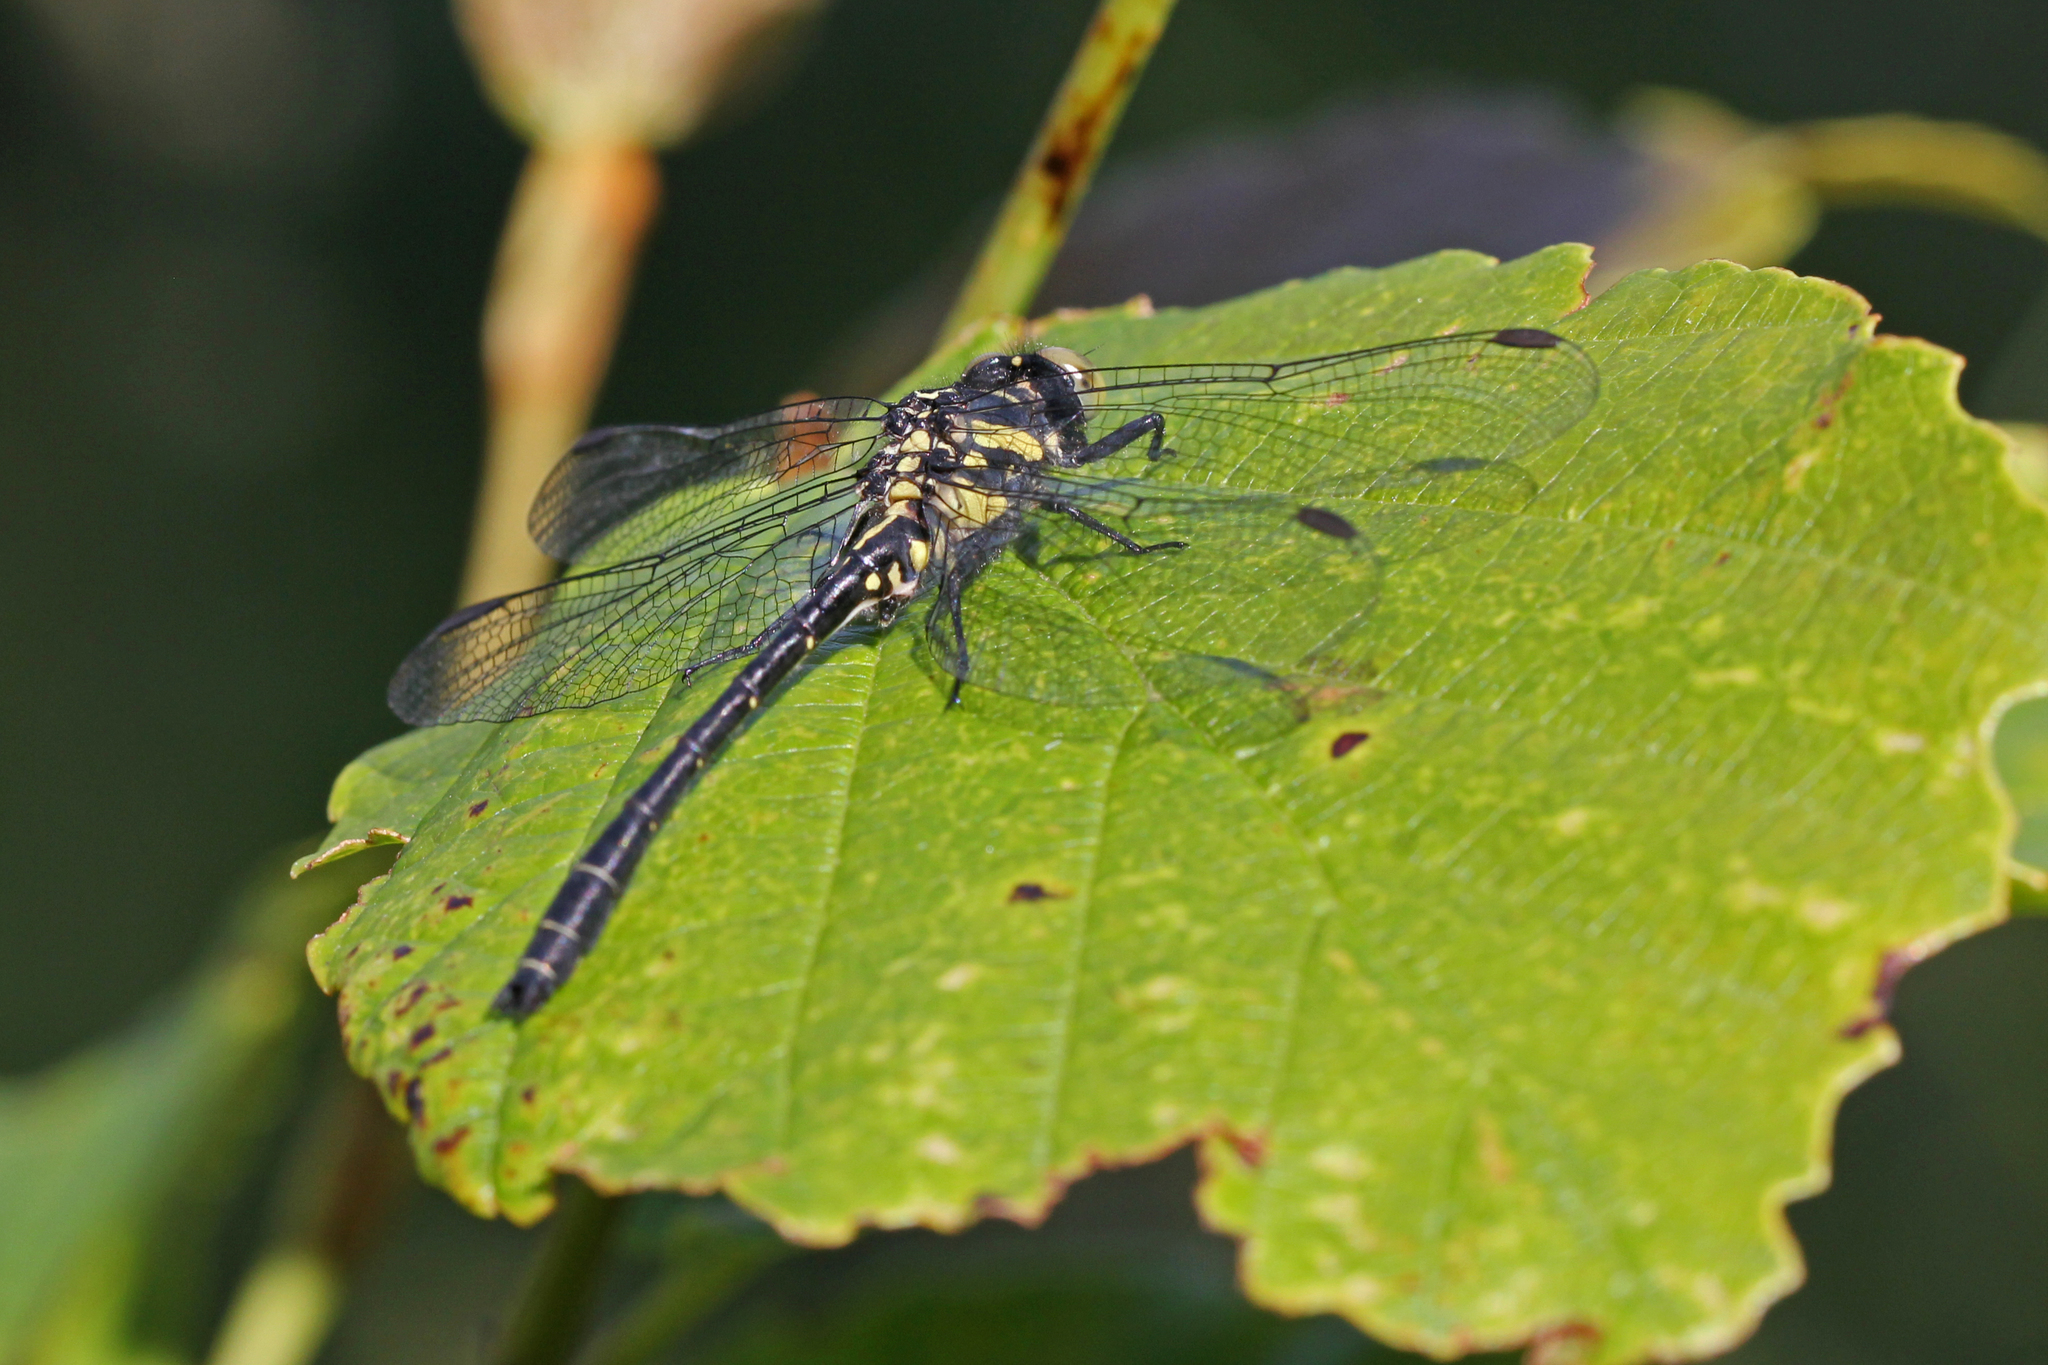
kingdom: Animalia
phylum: Arthropoda
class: Insecta
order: Odonata
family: Gomphidae
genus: Lanthus
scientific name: Lanthus parvulus
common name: Northern pygmy clubtail
